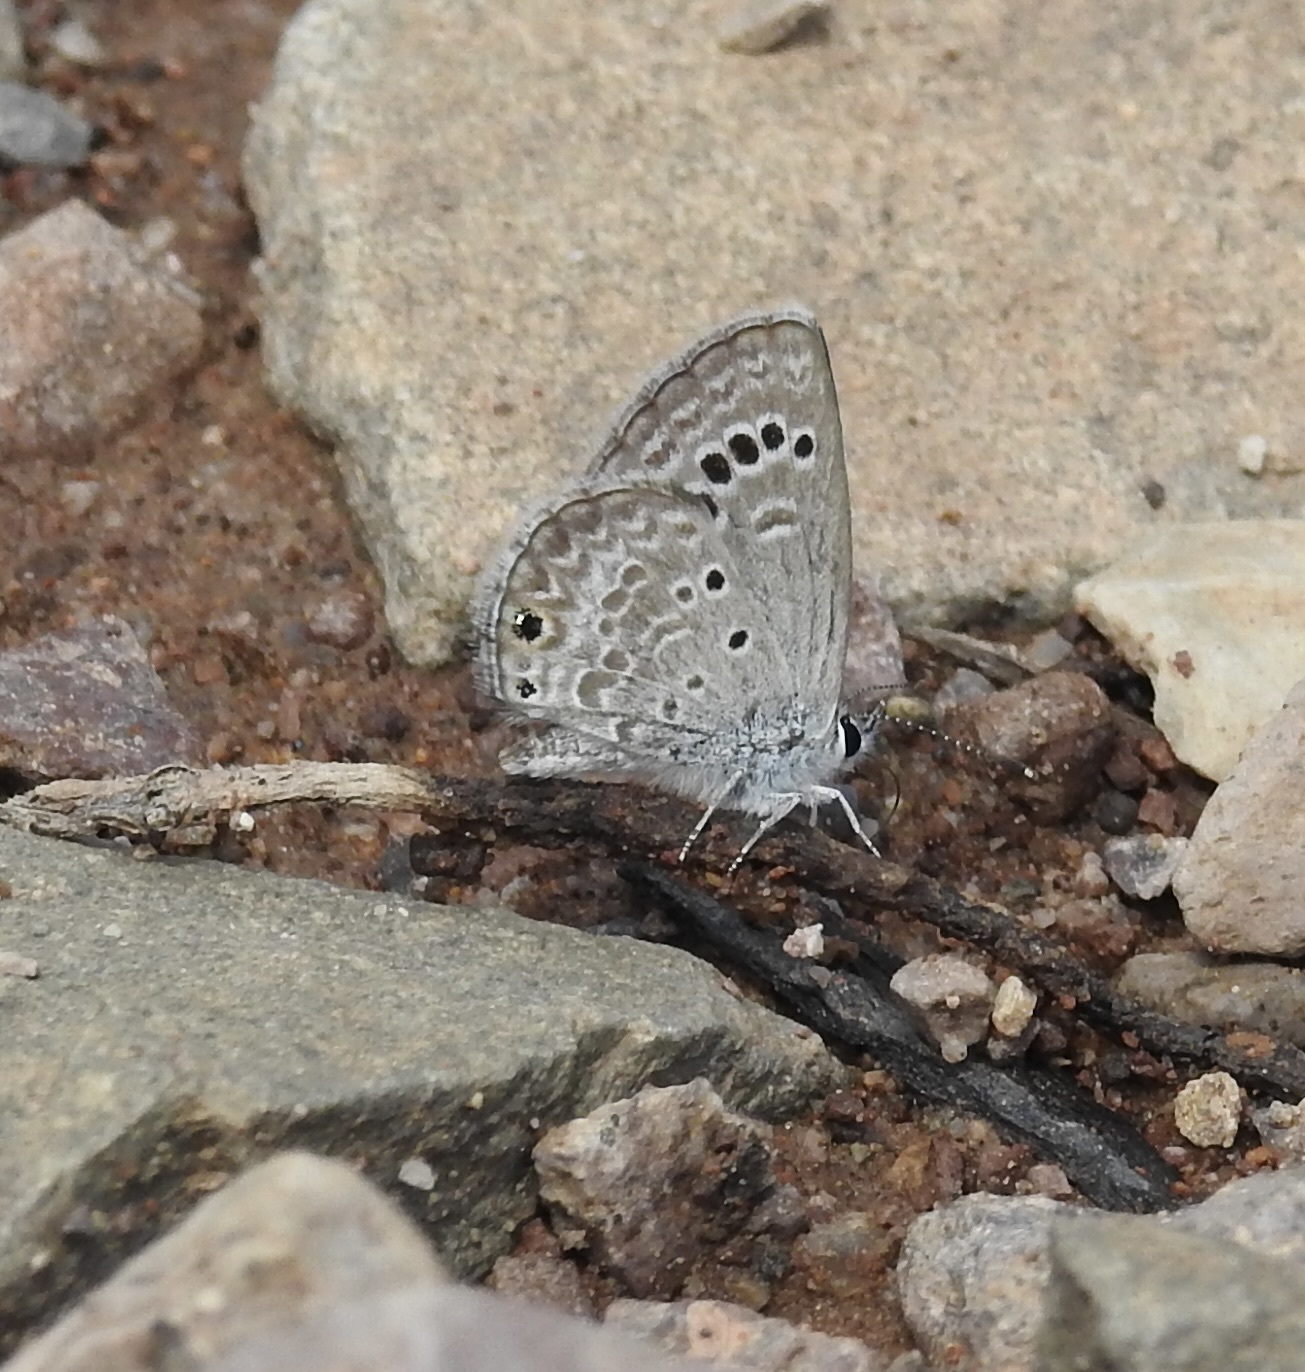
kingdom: Animalia
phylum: Arthropoda
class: Insecta
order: Lepidoptera
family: Lycaenidae
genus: Echinargus
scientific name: Echinargus isola
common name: Reakirt's blue
